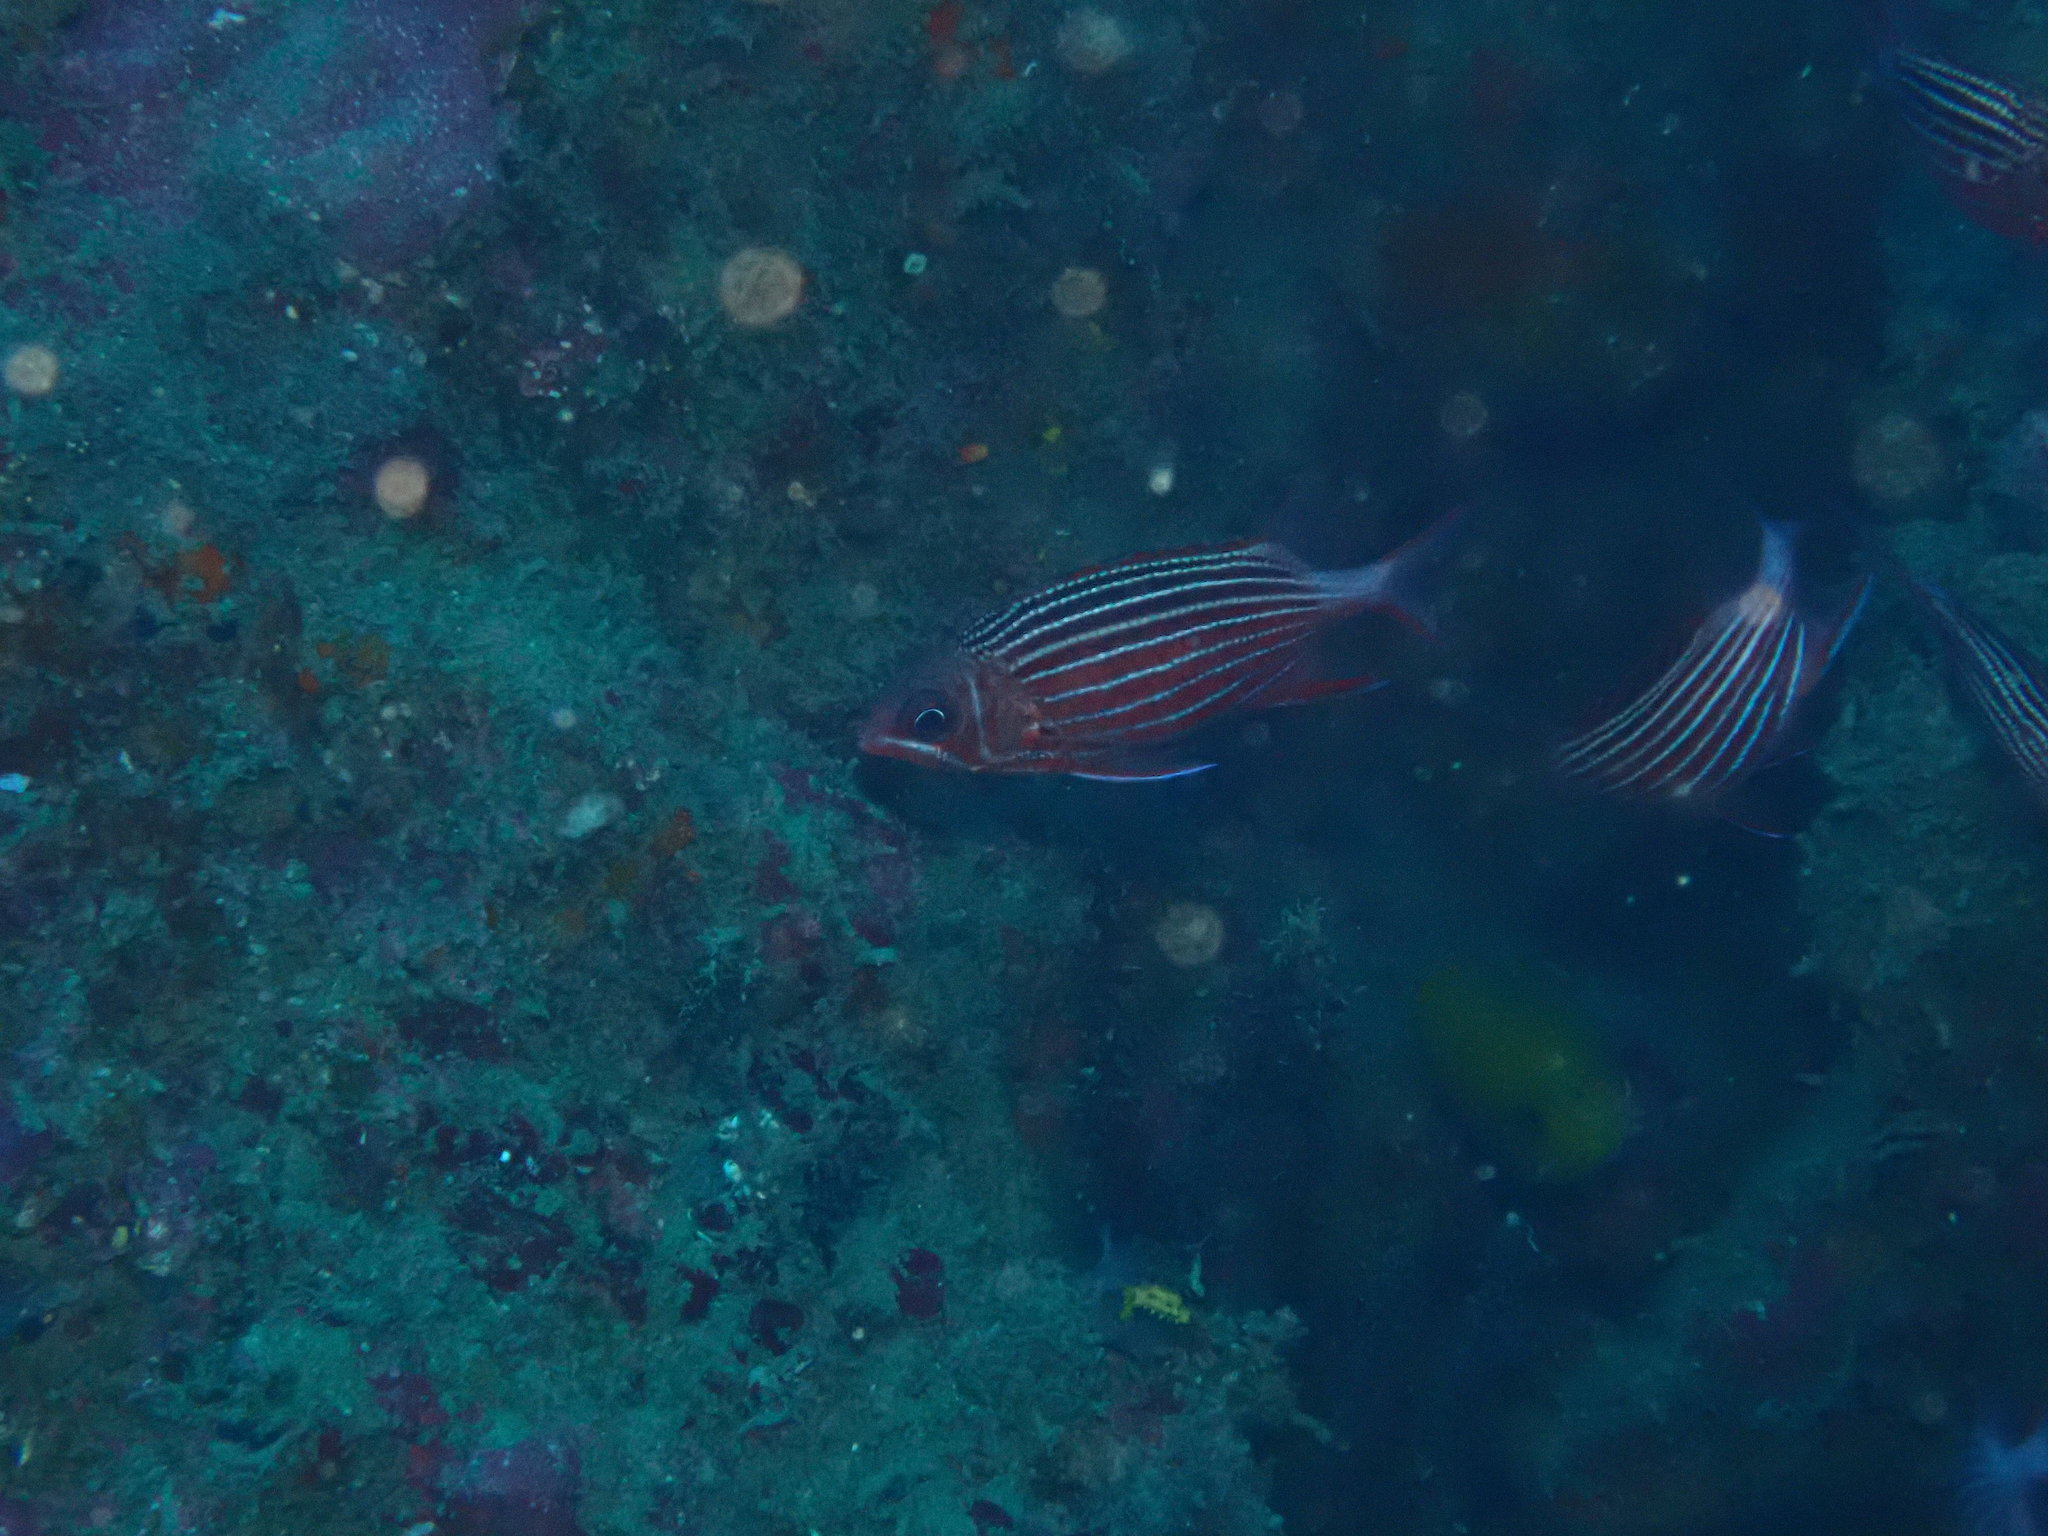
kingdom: Animalia
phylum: Chordata
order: Beryciformes
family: Holocentridae
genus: Sargocentron
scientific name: Sargocentron diadema
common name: Crown squirrelfish
